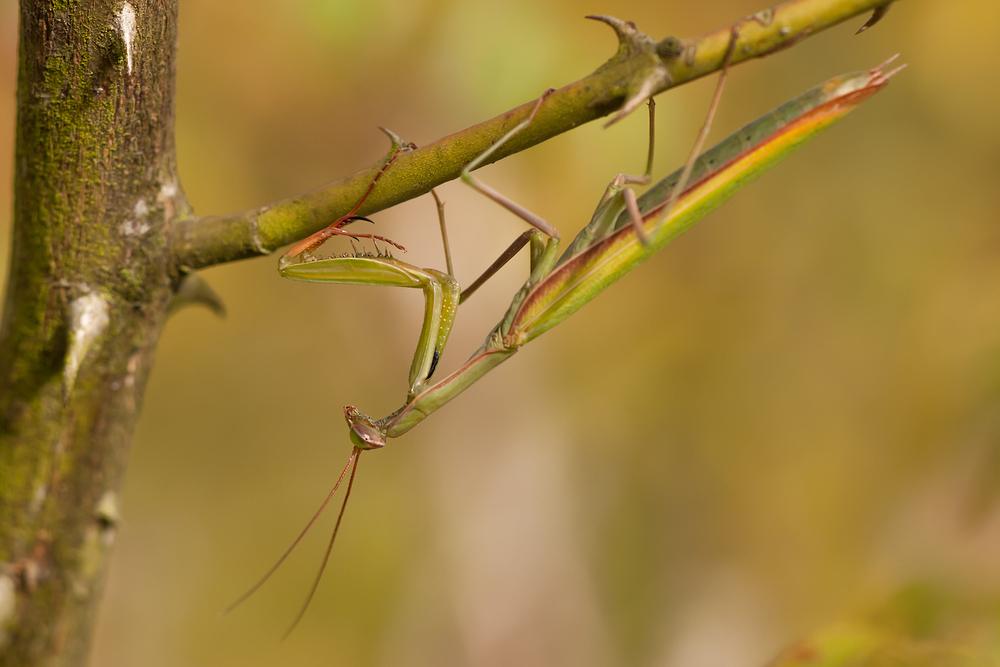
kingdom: Animalia
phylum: Arthropoda
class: Insecta
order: Mantodea
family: Mantidae
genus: Mantis
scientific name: Mantis religiosa
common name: Praying mantis
